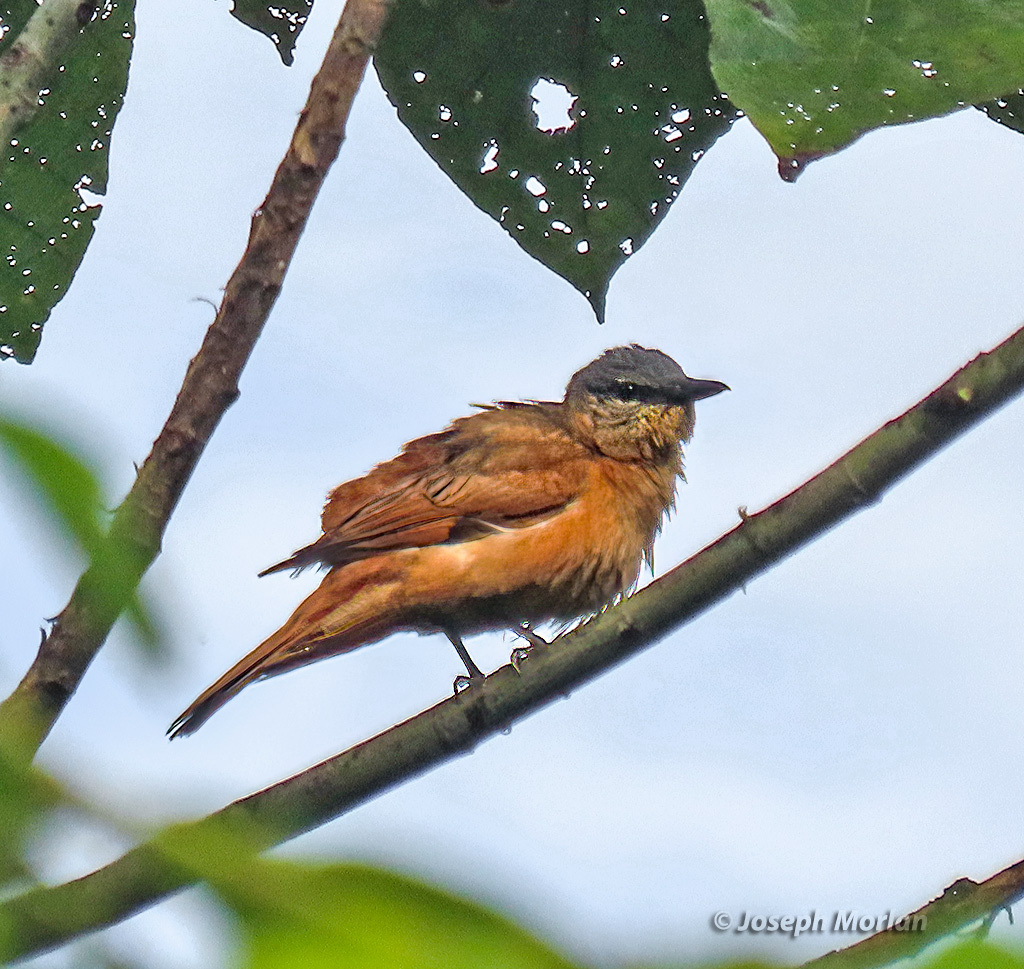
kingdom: Animalia
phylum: Chordata
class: Aves
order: Passeriformes
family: Campephagidae
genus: Edolisoma
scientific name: Edolisoma tenuirostre
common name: Common cicadabird
